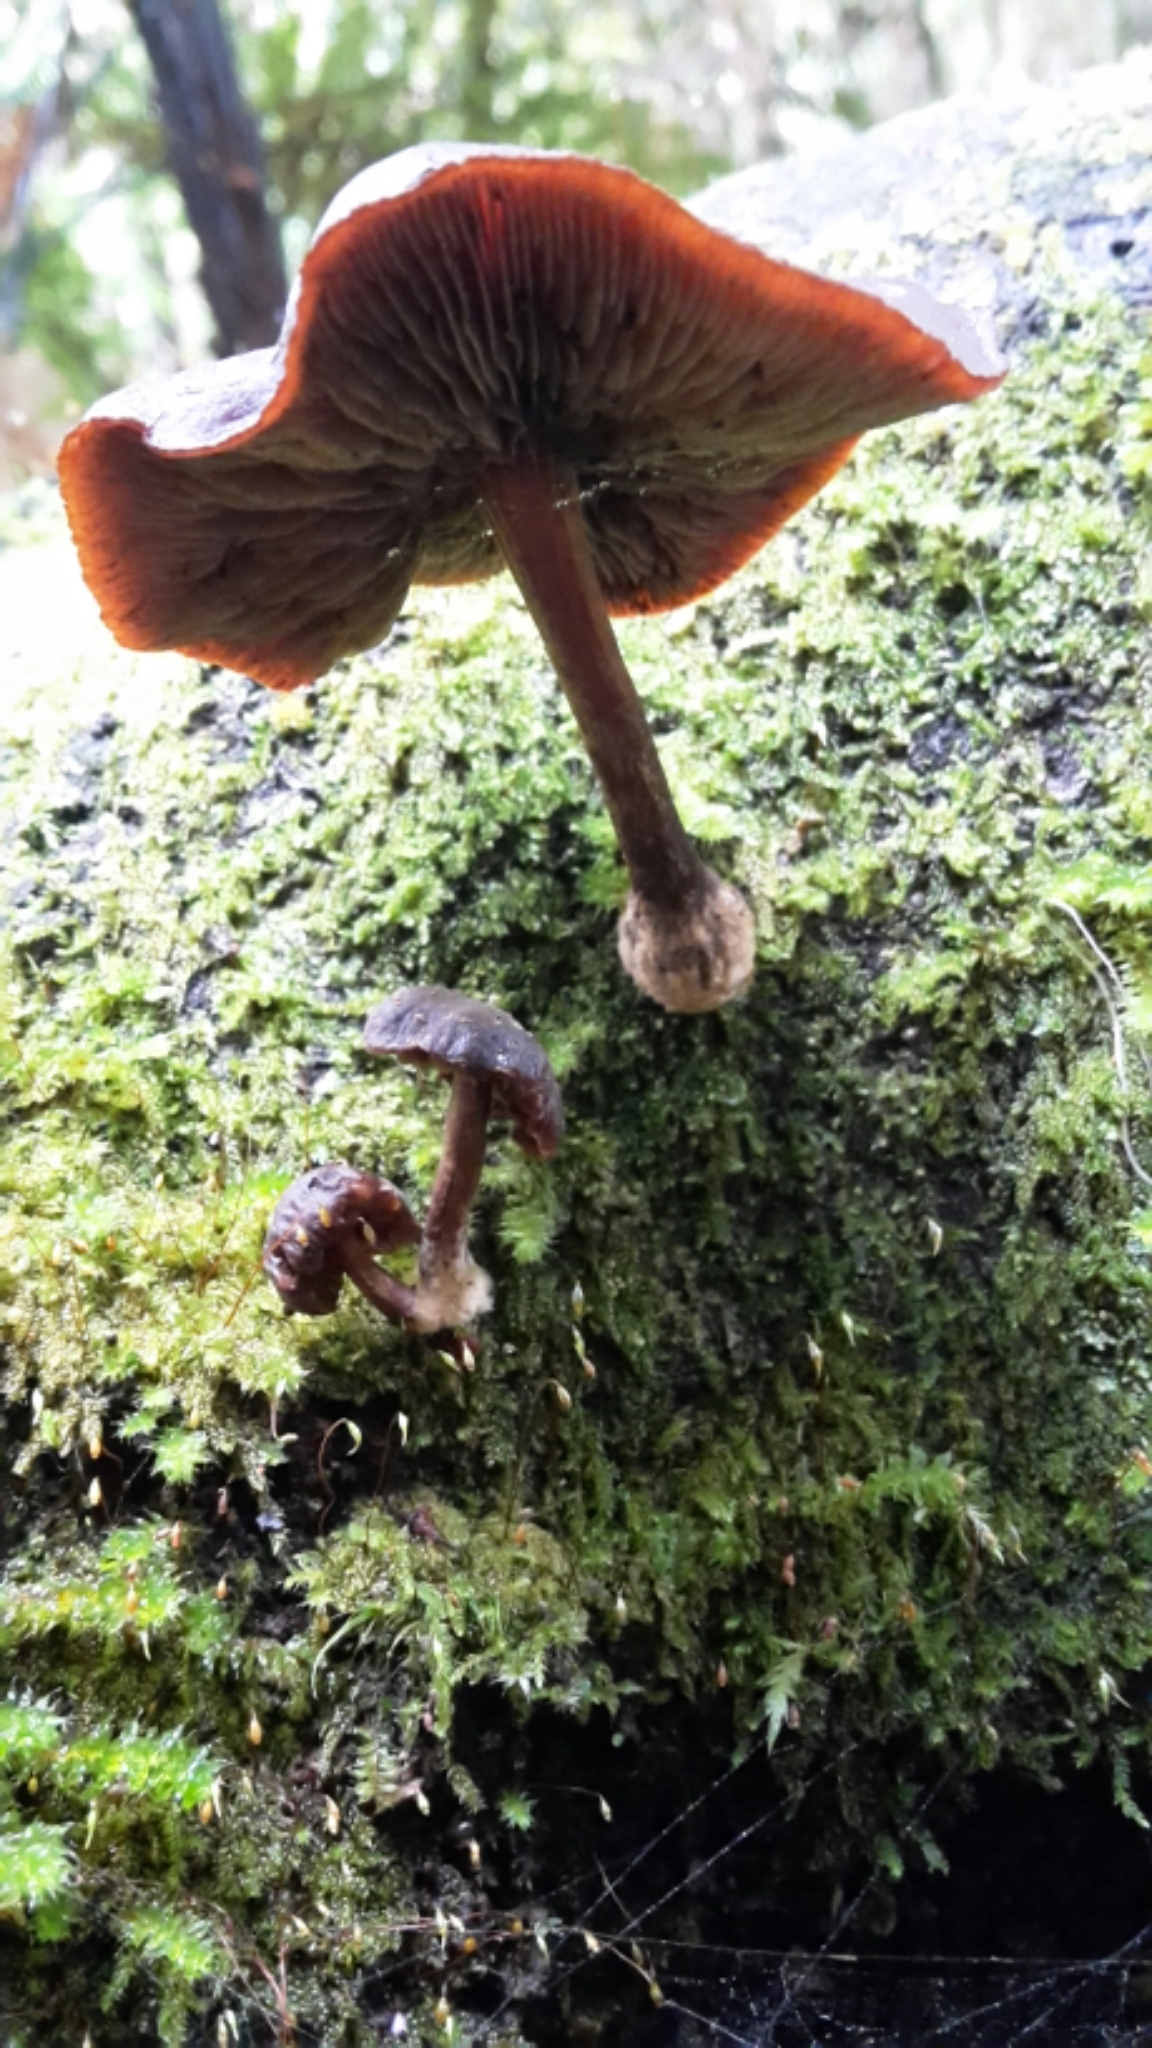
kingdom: Fungi
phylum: Basidiomycota
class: Agaricomycetes
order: Agaricales
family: Strophariaceae
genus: Hypholoma
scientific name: Hypholoma brunneum
